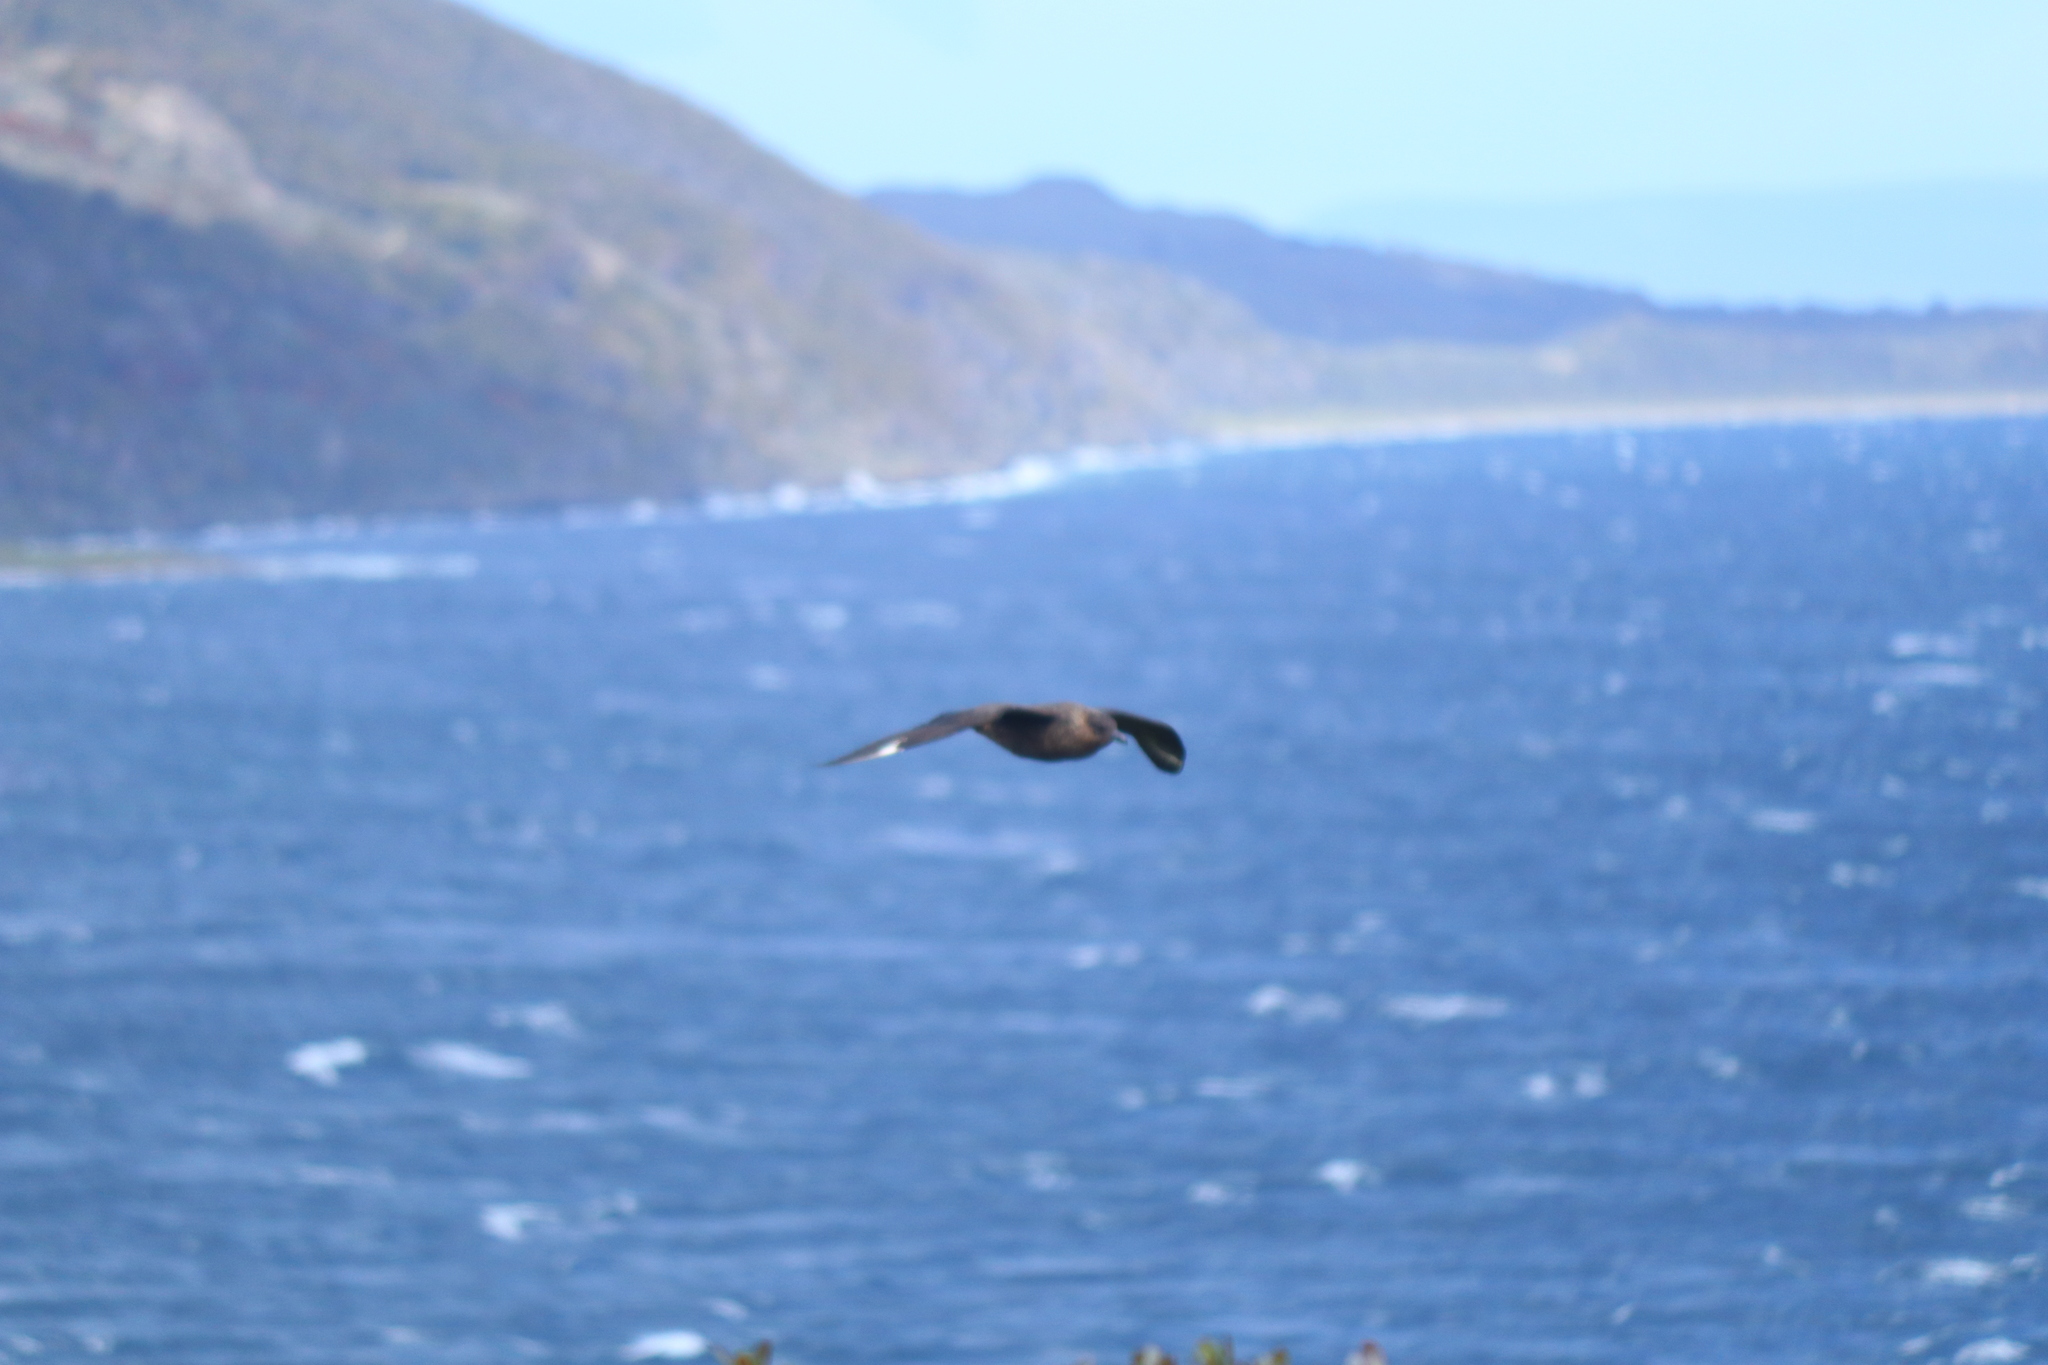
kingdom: Animalia
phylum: Chordata
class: Aves
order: Charadriiformes
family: Stercorariidae
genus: Stercorarius
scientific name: Stercorarius chilensis
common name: Chilean skua
